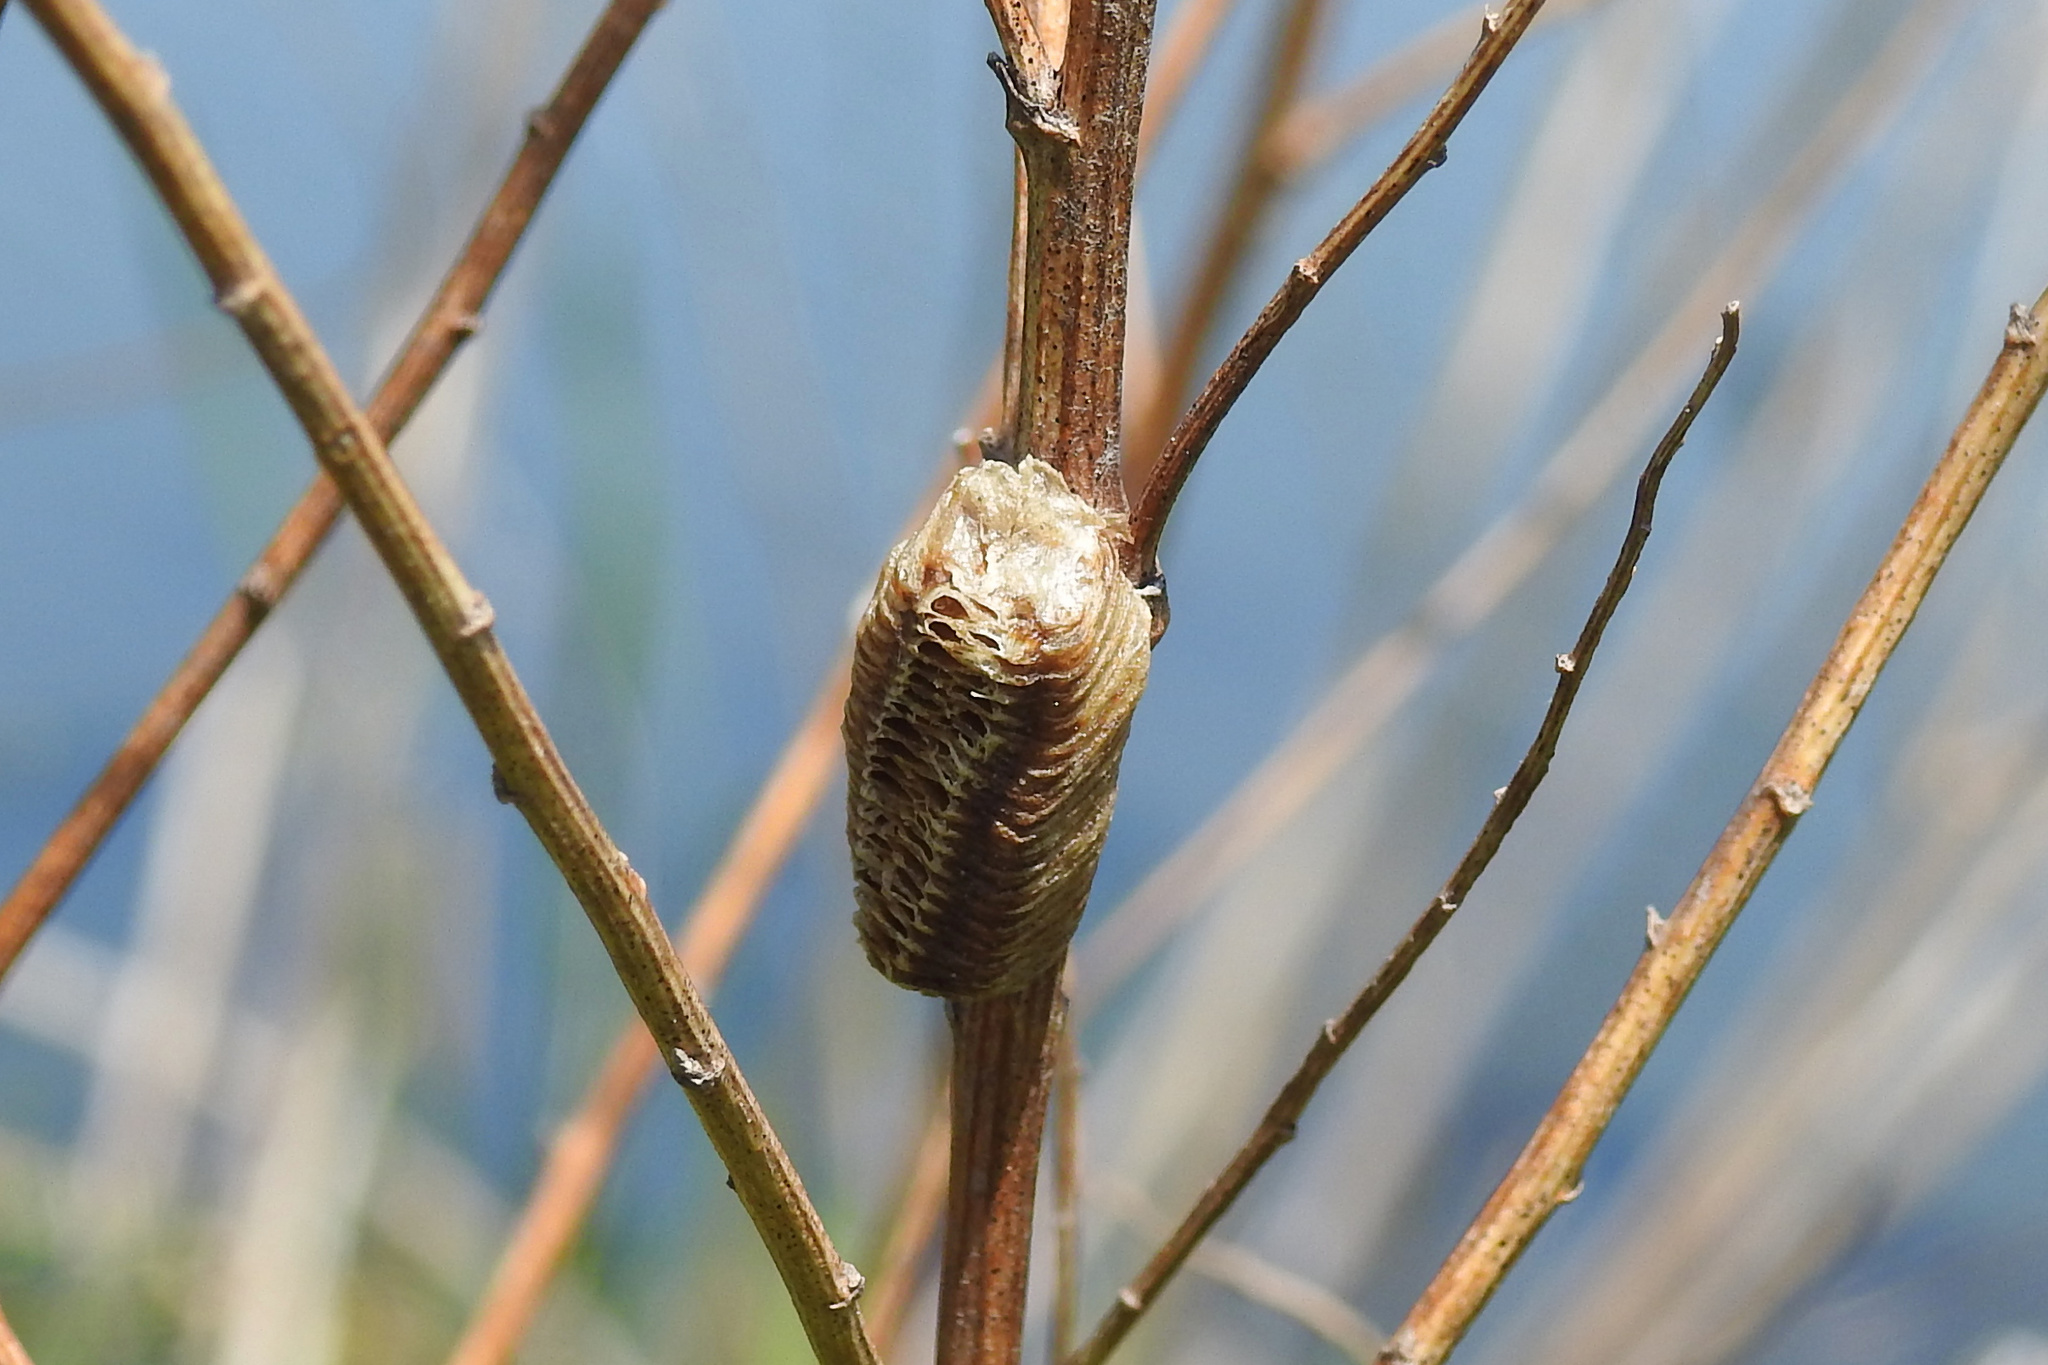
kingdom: Animalia
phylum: Arthropoda
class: Insecta
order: Mantodea
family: Mantidae
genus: Stagmomantis
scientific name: Stagmomantis carolina
